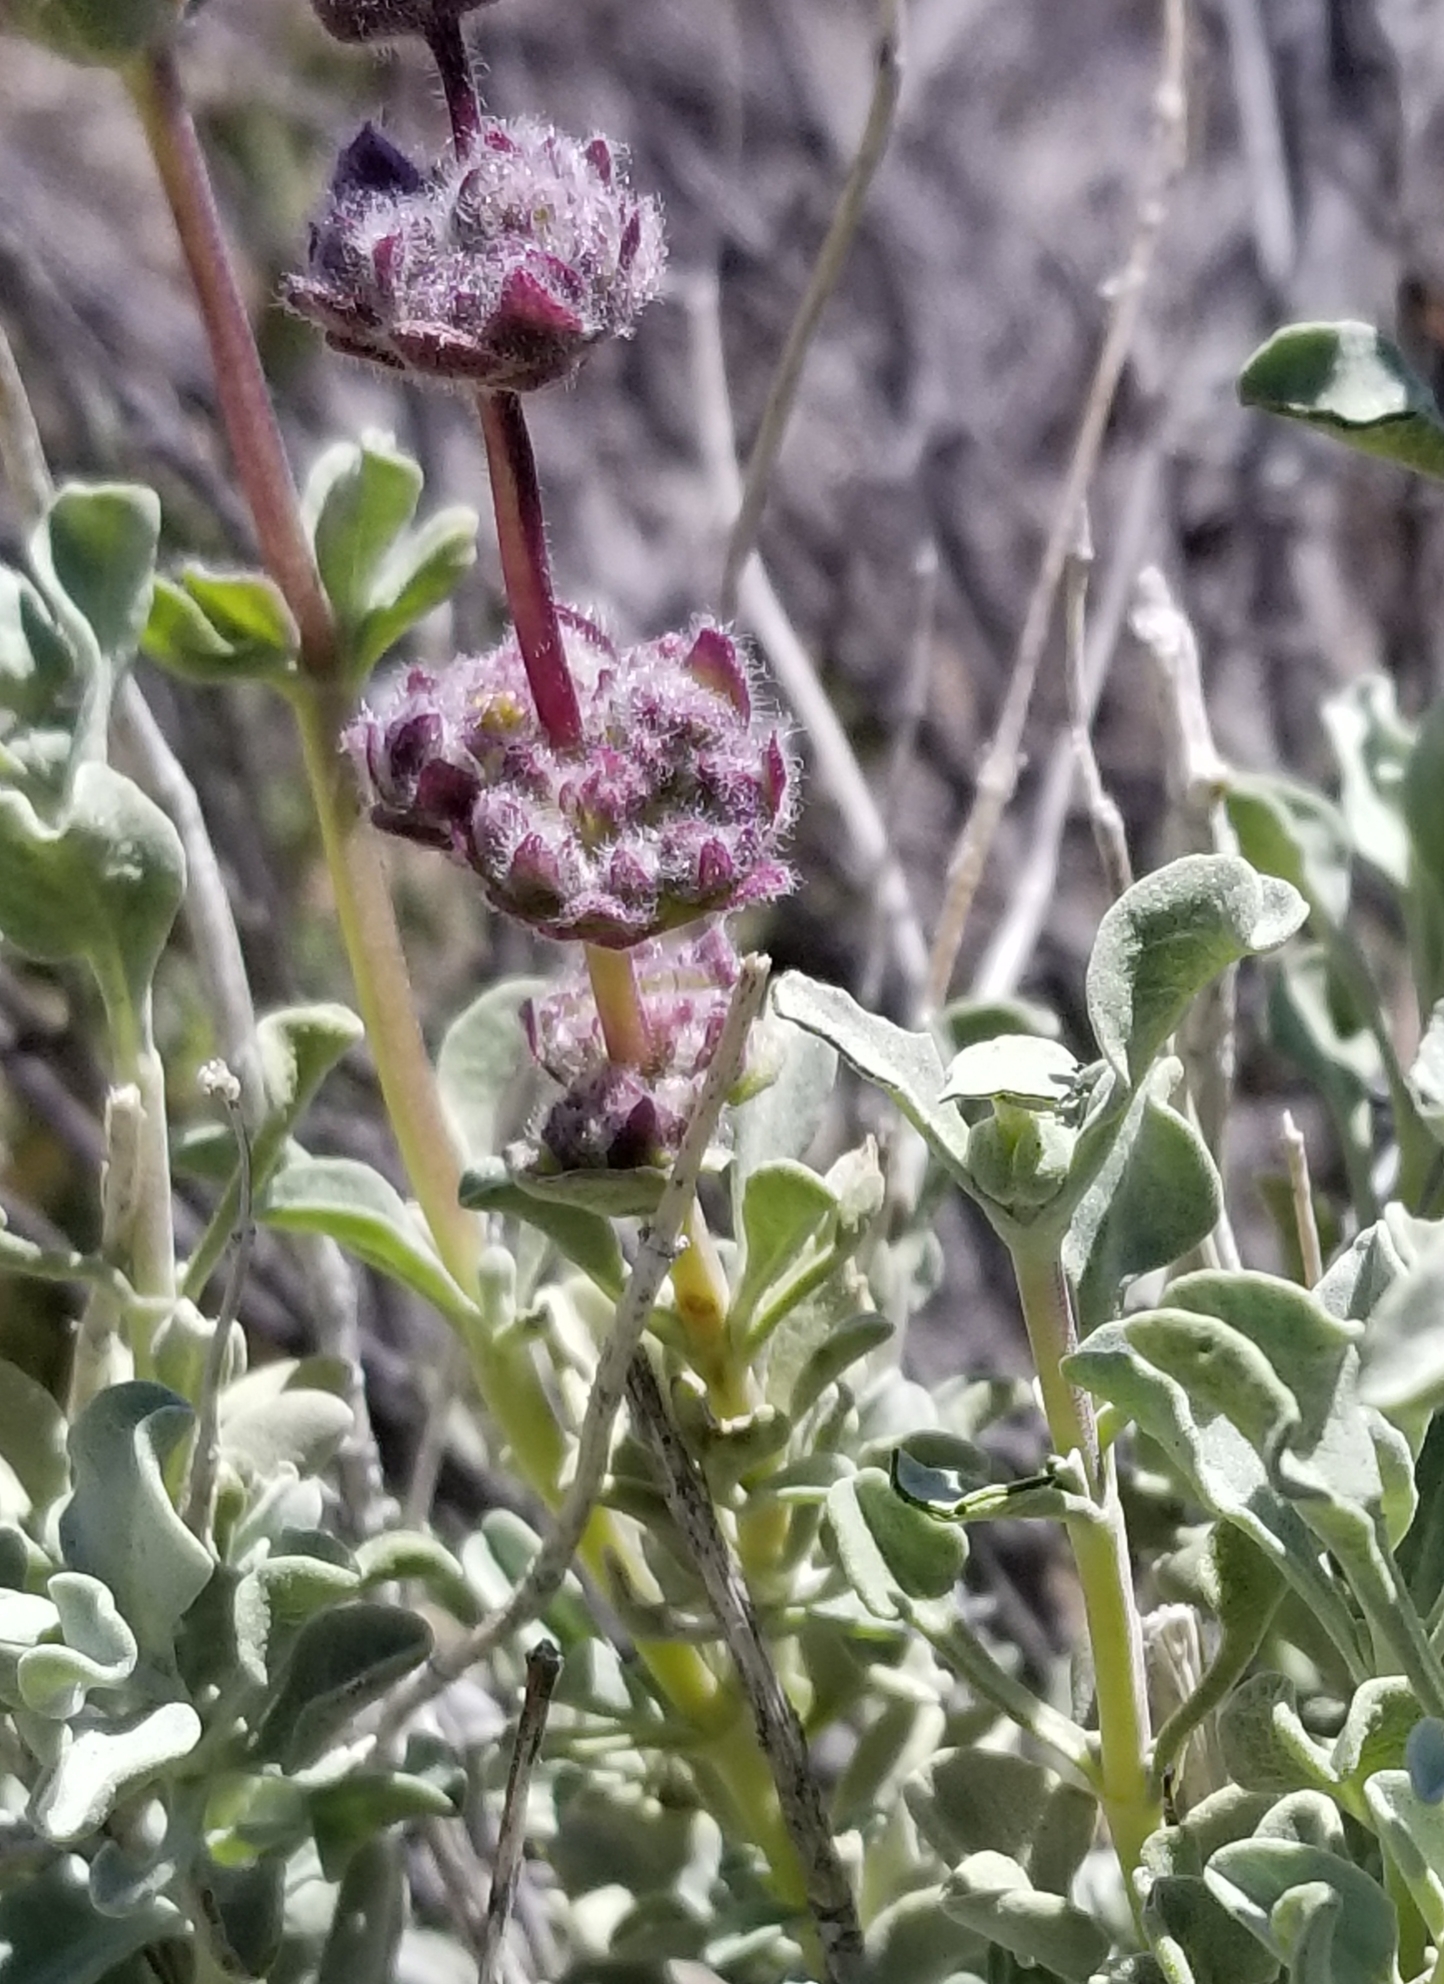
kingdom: Plantae
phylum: Tracheophyta
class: Magnoliopsida
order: Lamiales
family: Lamiaceae
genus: Salvia
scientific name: Salvia dorrii
